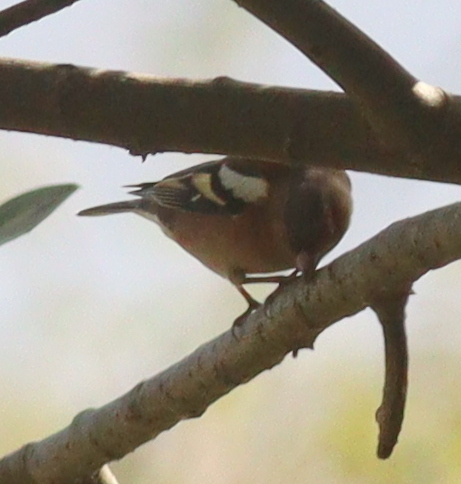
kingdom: Animalia
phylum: Chordata
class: Aves
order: Passeriformes
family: Fringillidae
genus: Fringilla
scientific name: Fringilla coelebs
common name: Common chaffinch
